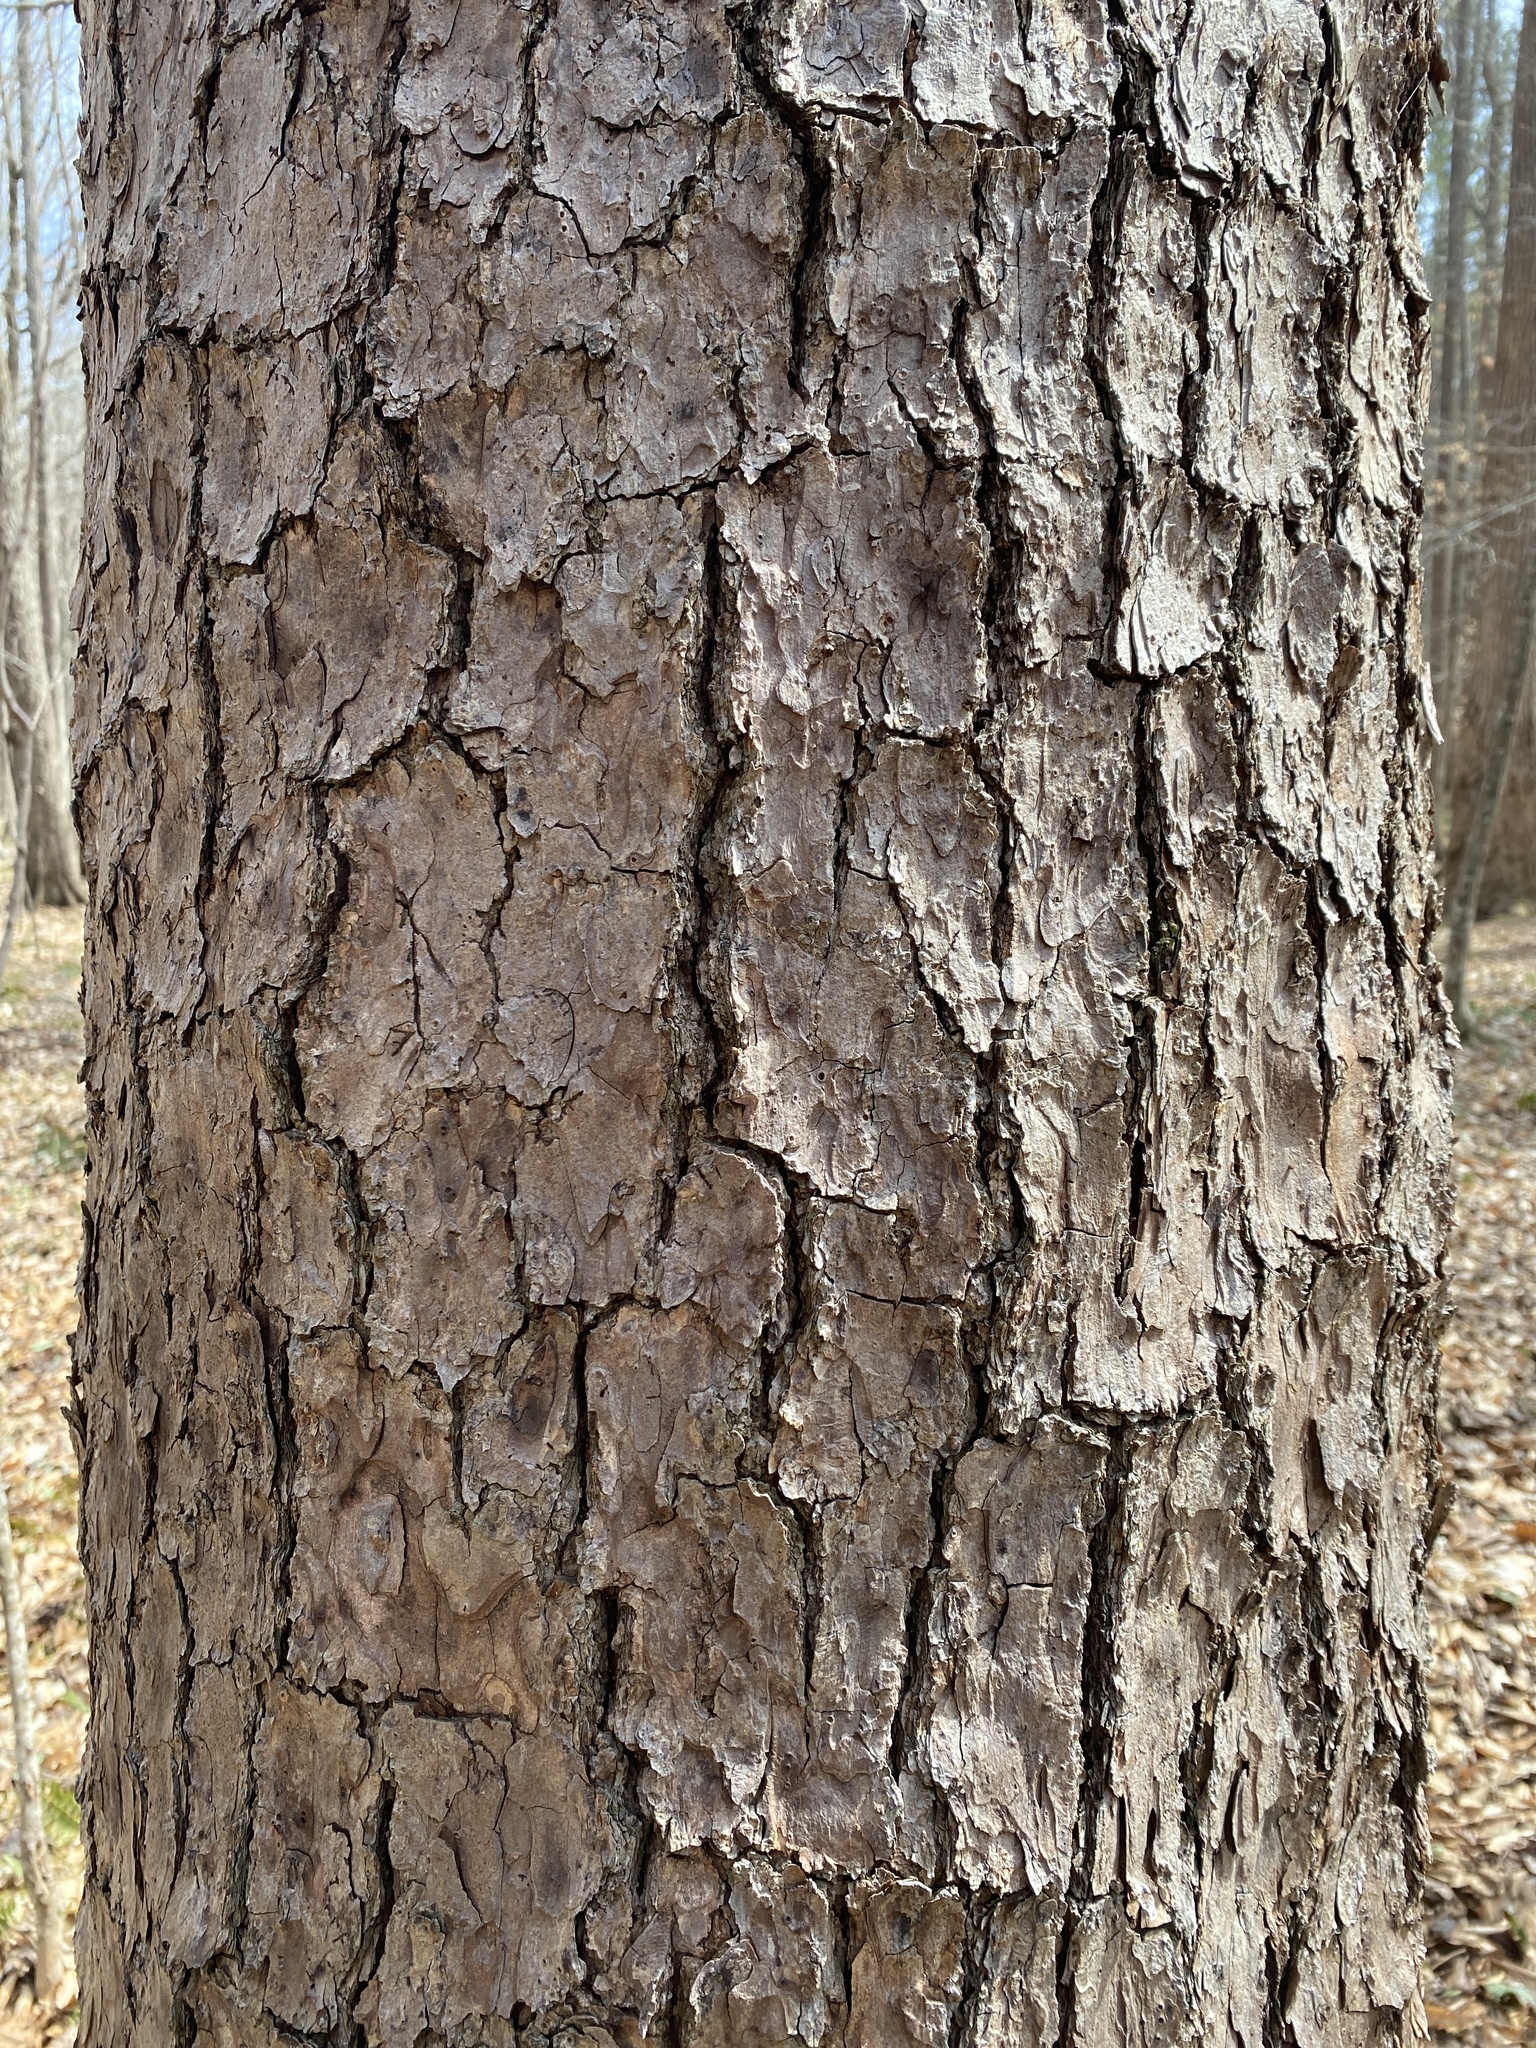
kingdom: Plantae
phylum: Tracheophyta
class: Pinopsida
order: Pinales
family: Pinaceae
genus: Pinus
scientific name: Pinus echinata
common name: Shortleaf pine
